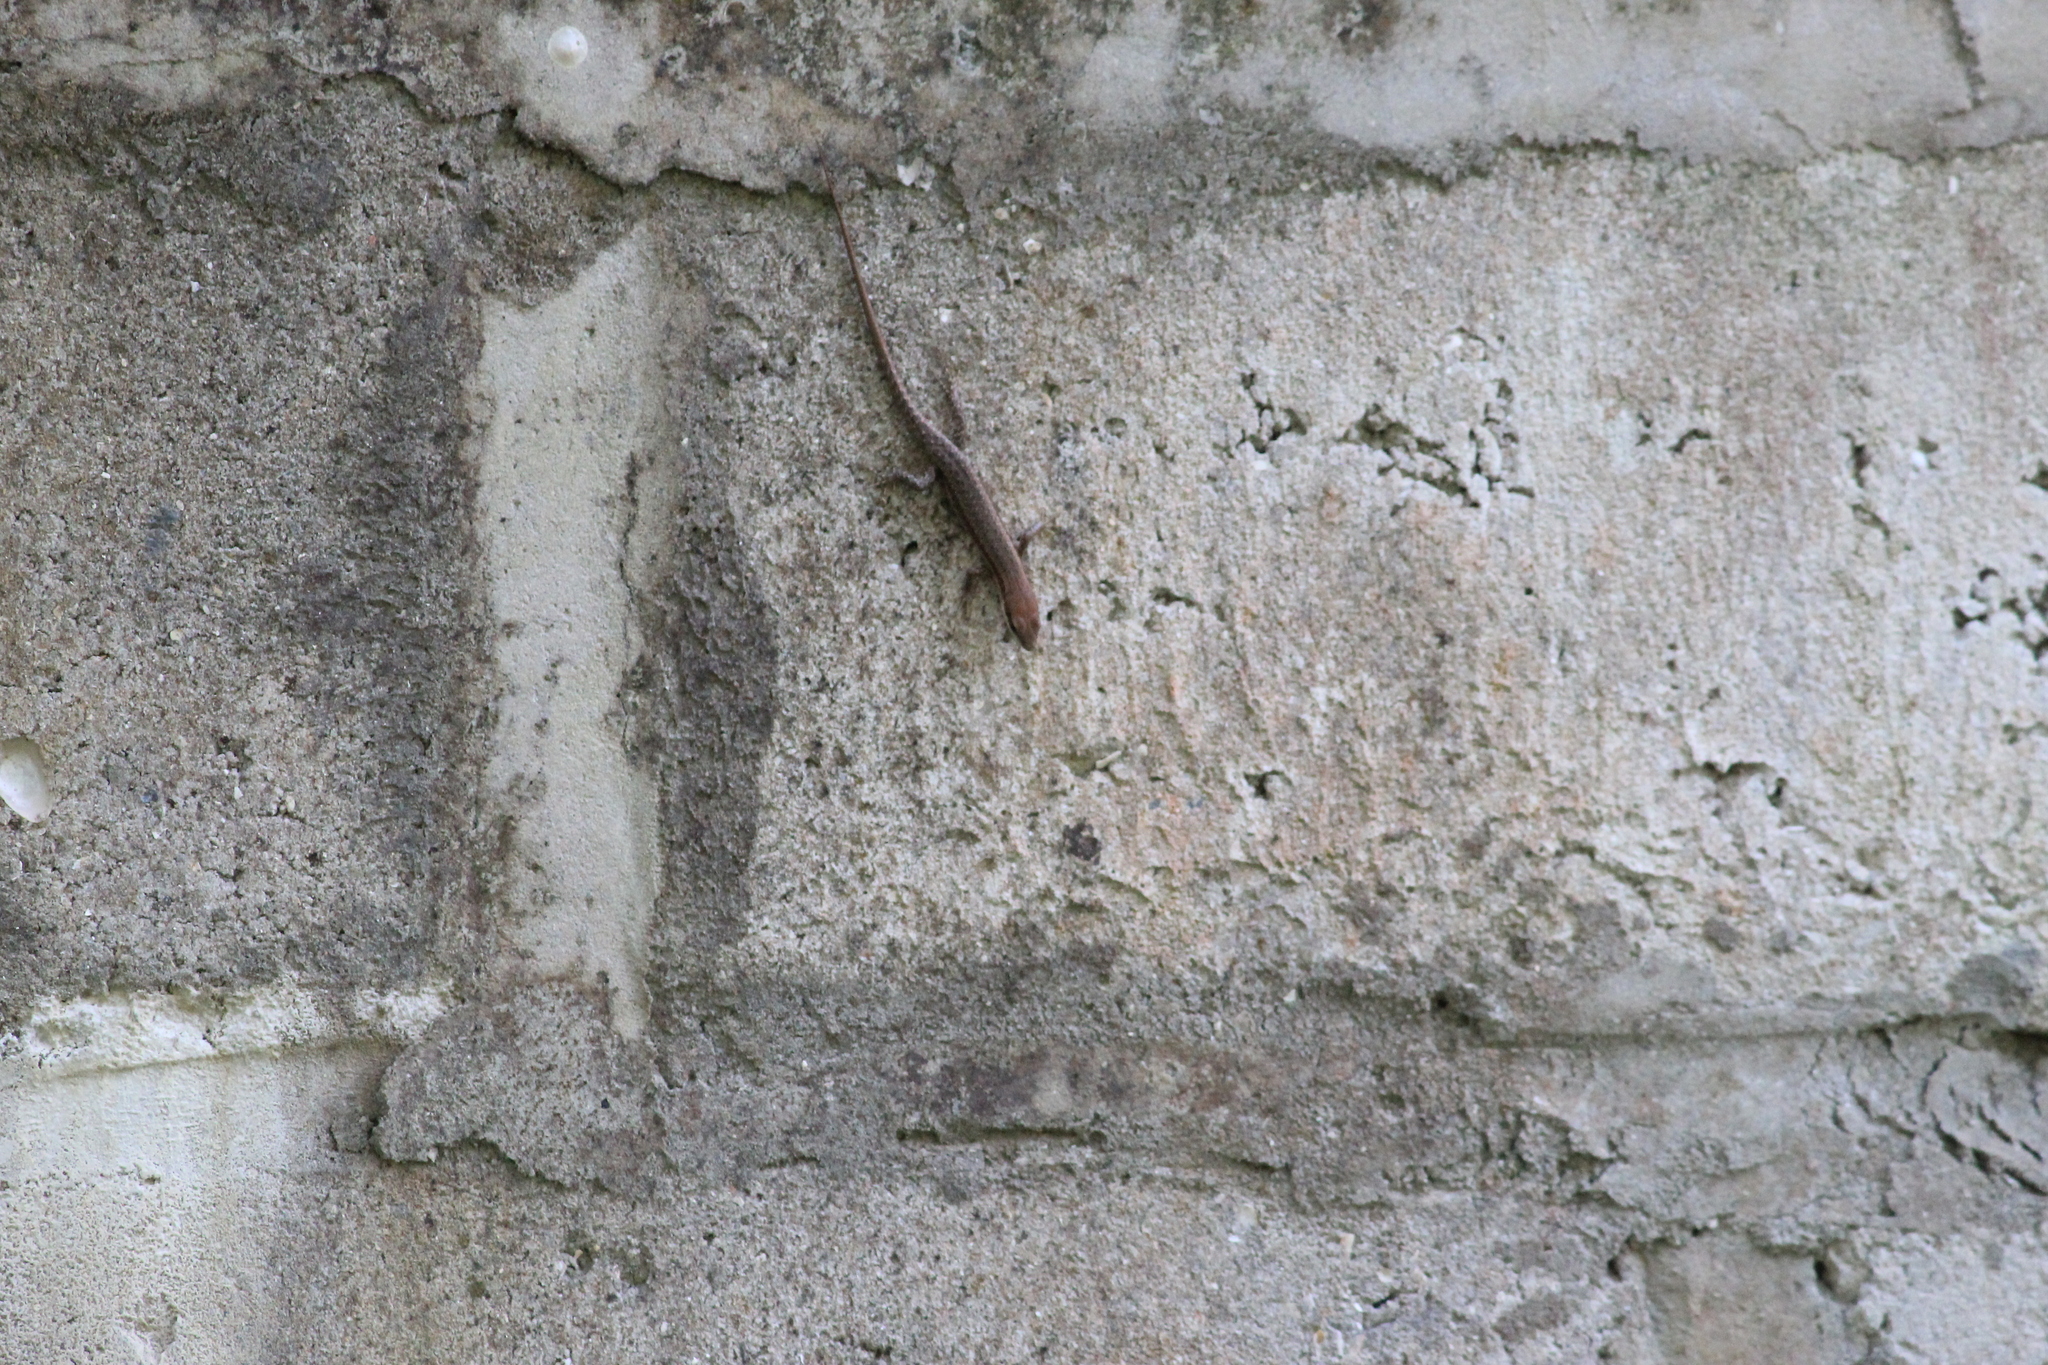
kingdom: Animalia
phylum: Chordata
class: Squamata
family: Scincidae
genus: Trachylepis
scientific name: Trachylepis affinis
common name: Senegal mabuya
